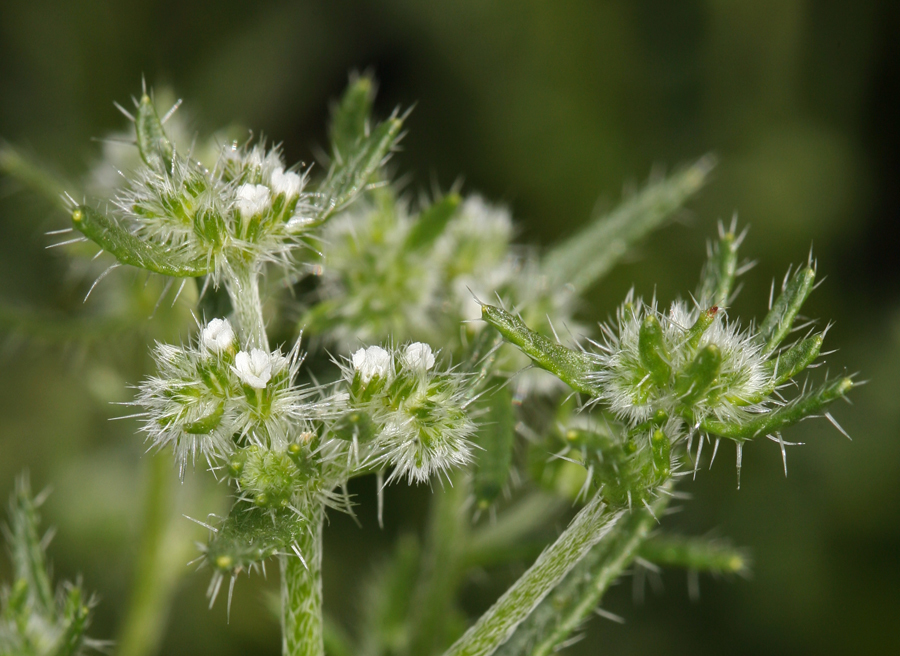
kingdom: Plantae
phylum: Tracheophyta
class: Magnoliopsida
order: Boraginales
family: Boraginaceae
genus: Cryptantha
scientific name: Cryptantha maritima
